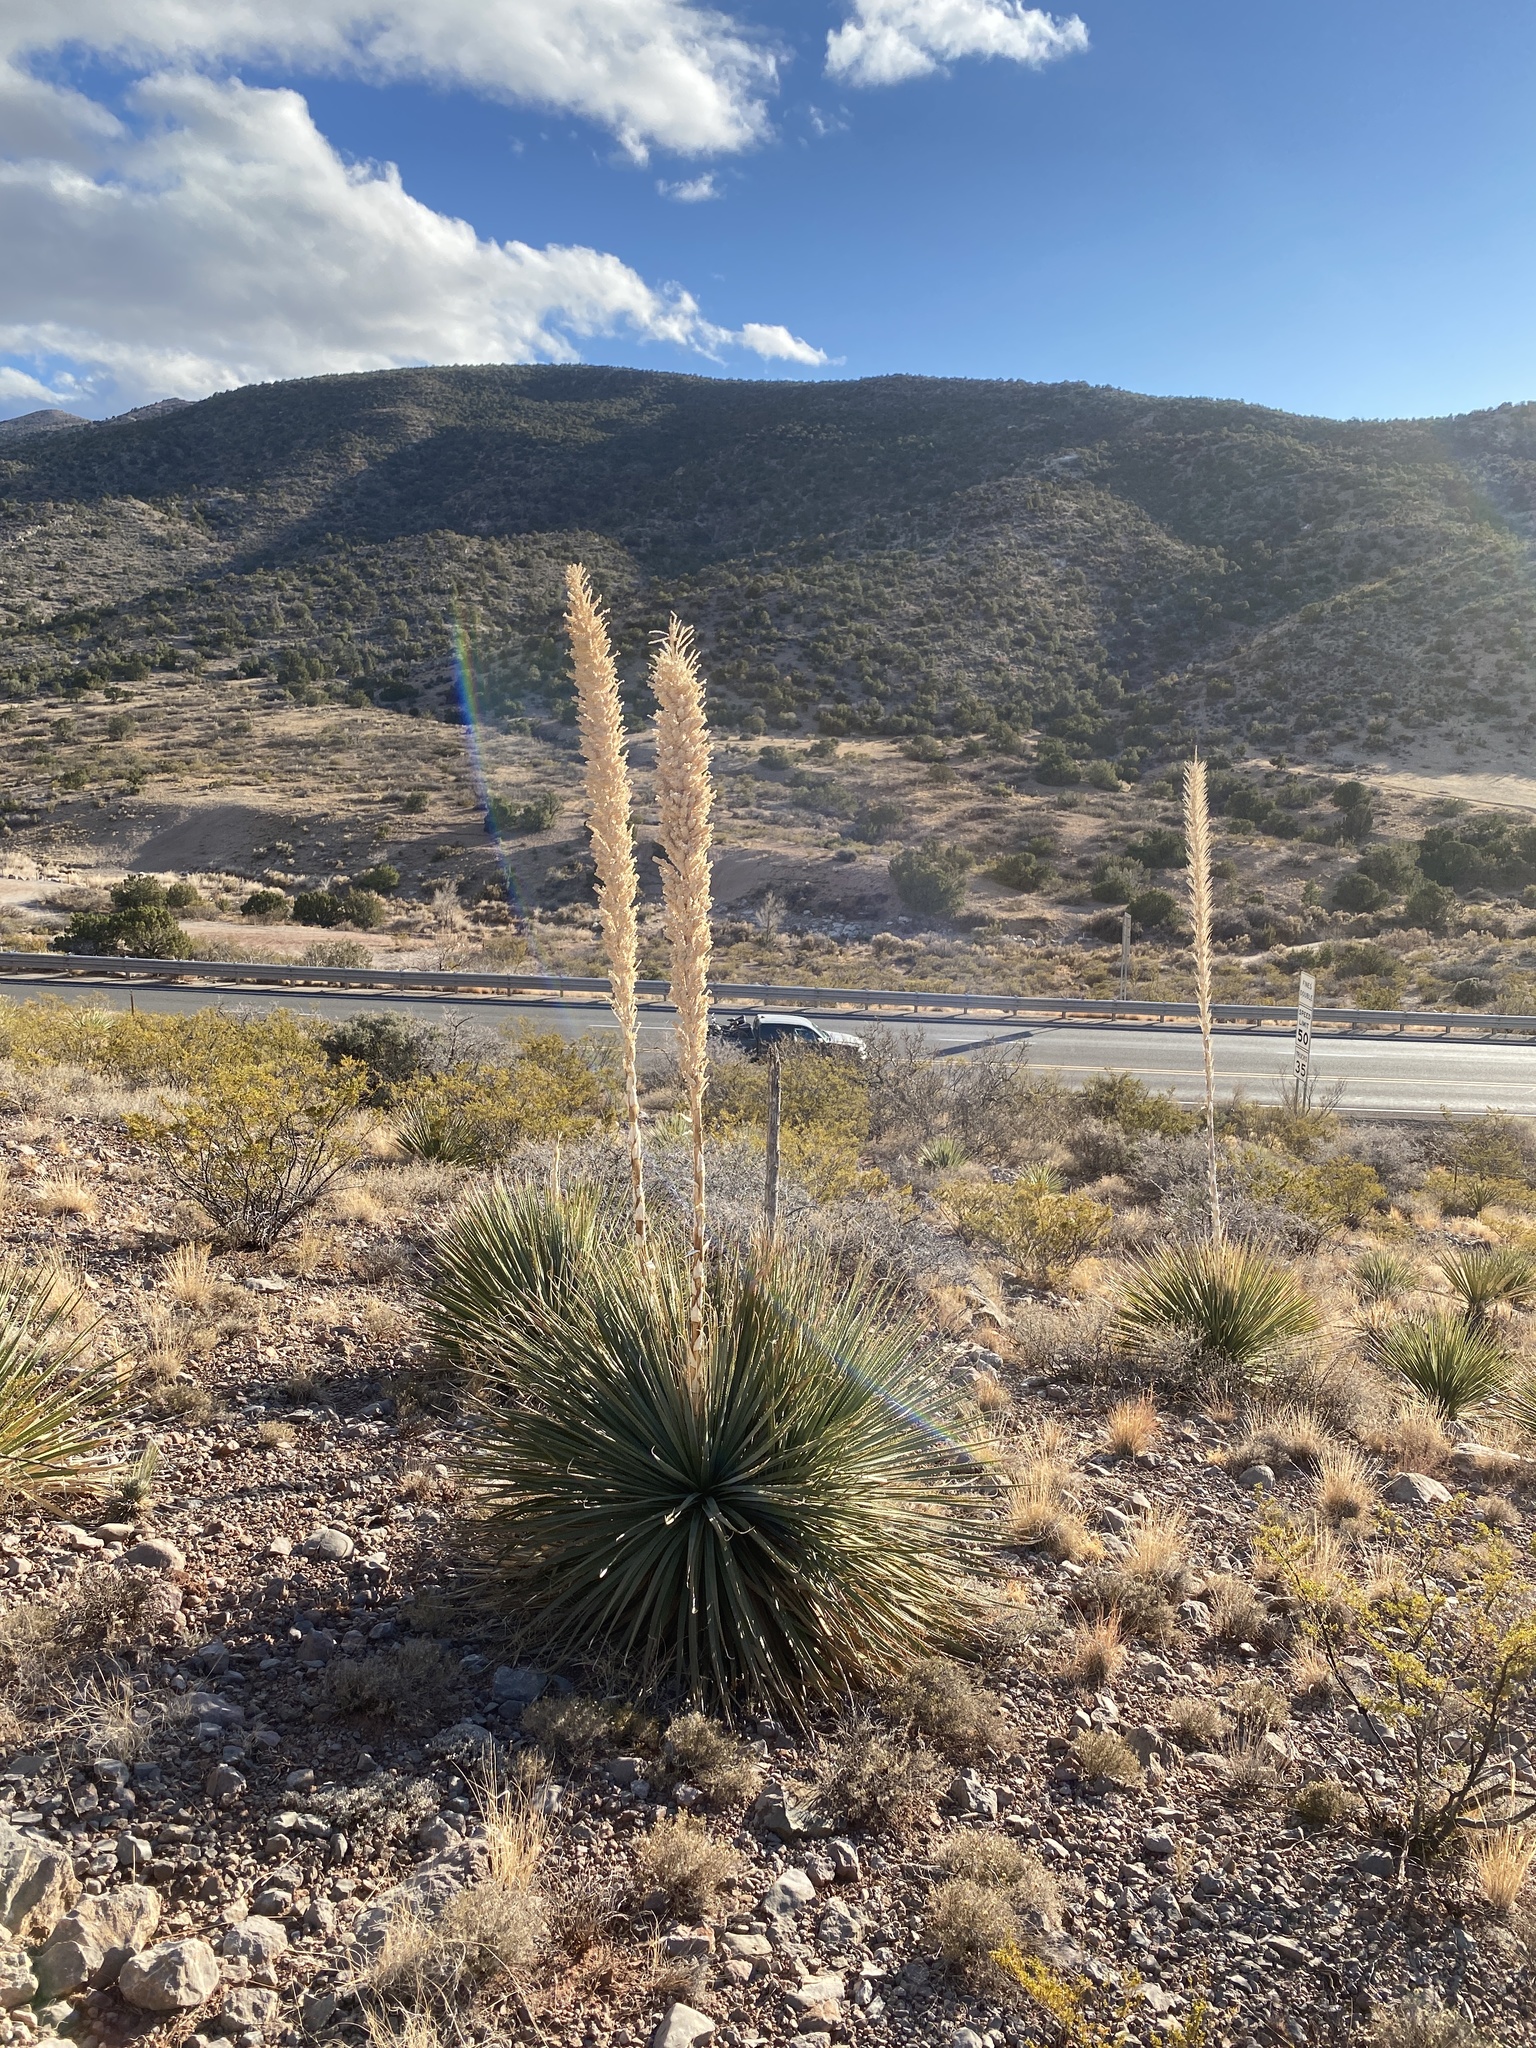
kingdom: Plantae
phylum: Tracheophyta
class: Liliopsida
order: Asparagales
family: Asparagaceae
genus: Dasylirion
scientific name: Dasylirion wheeleri
